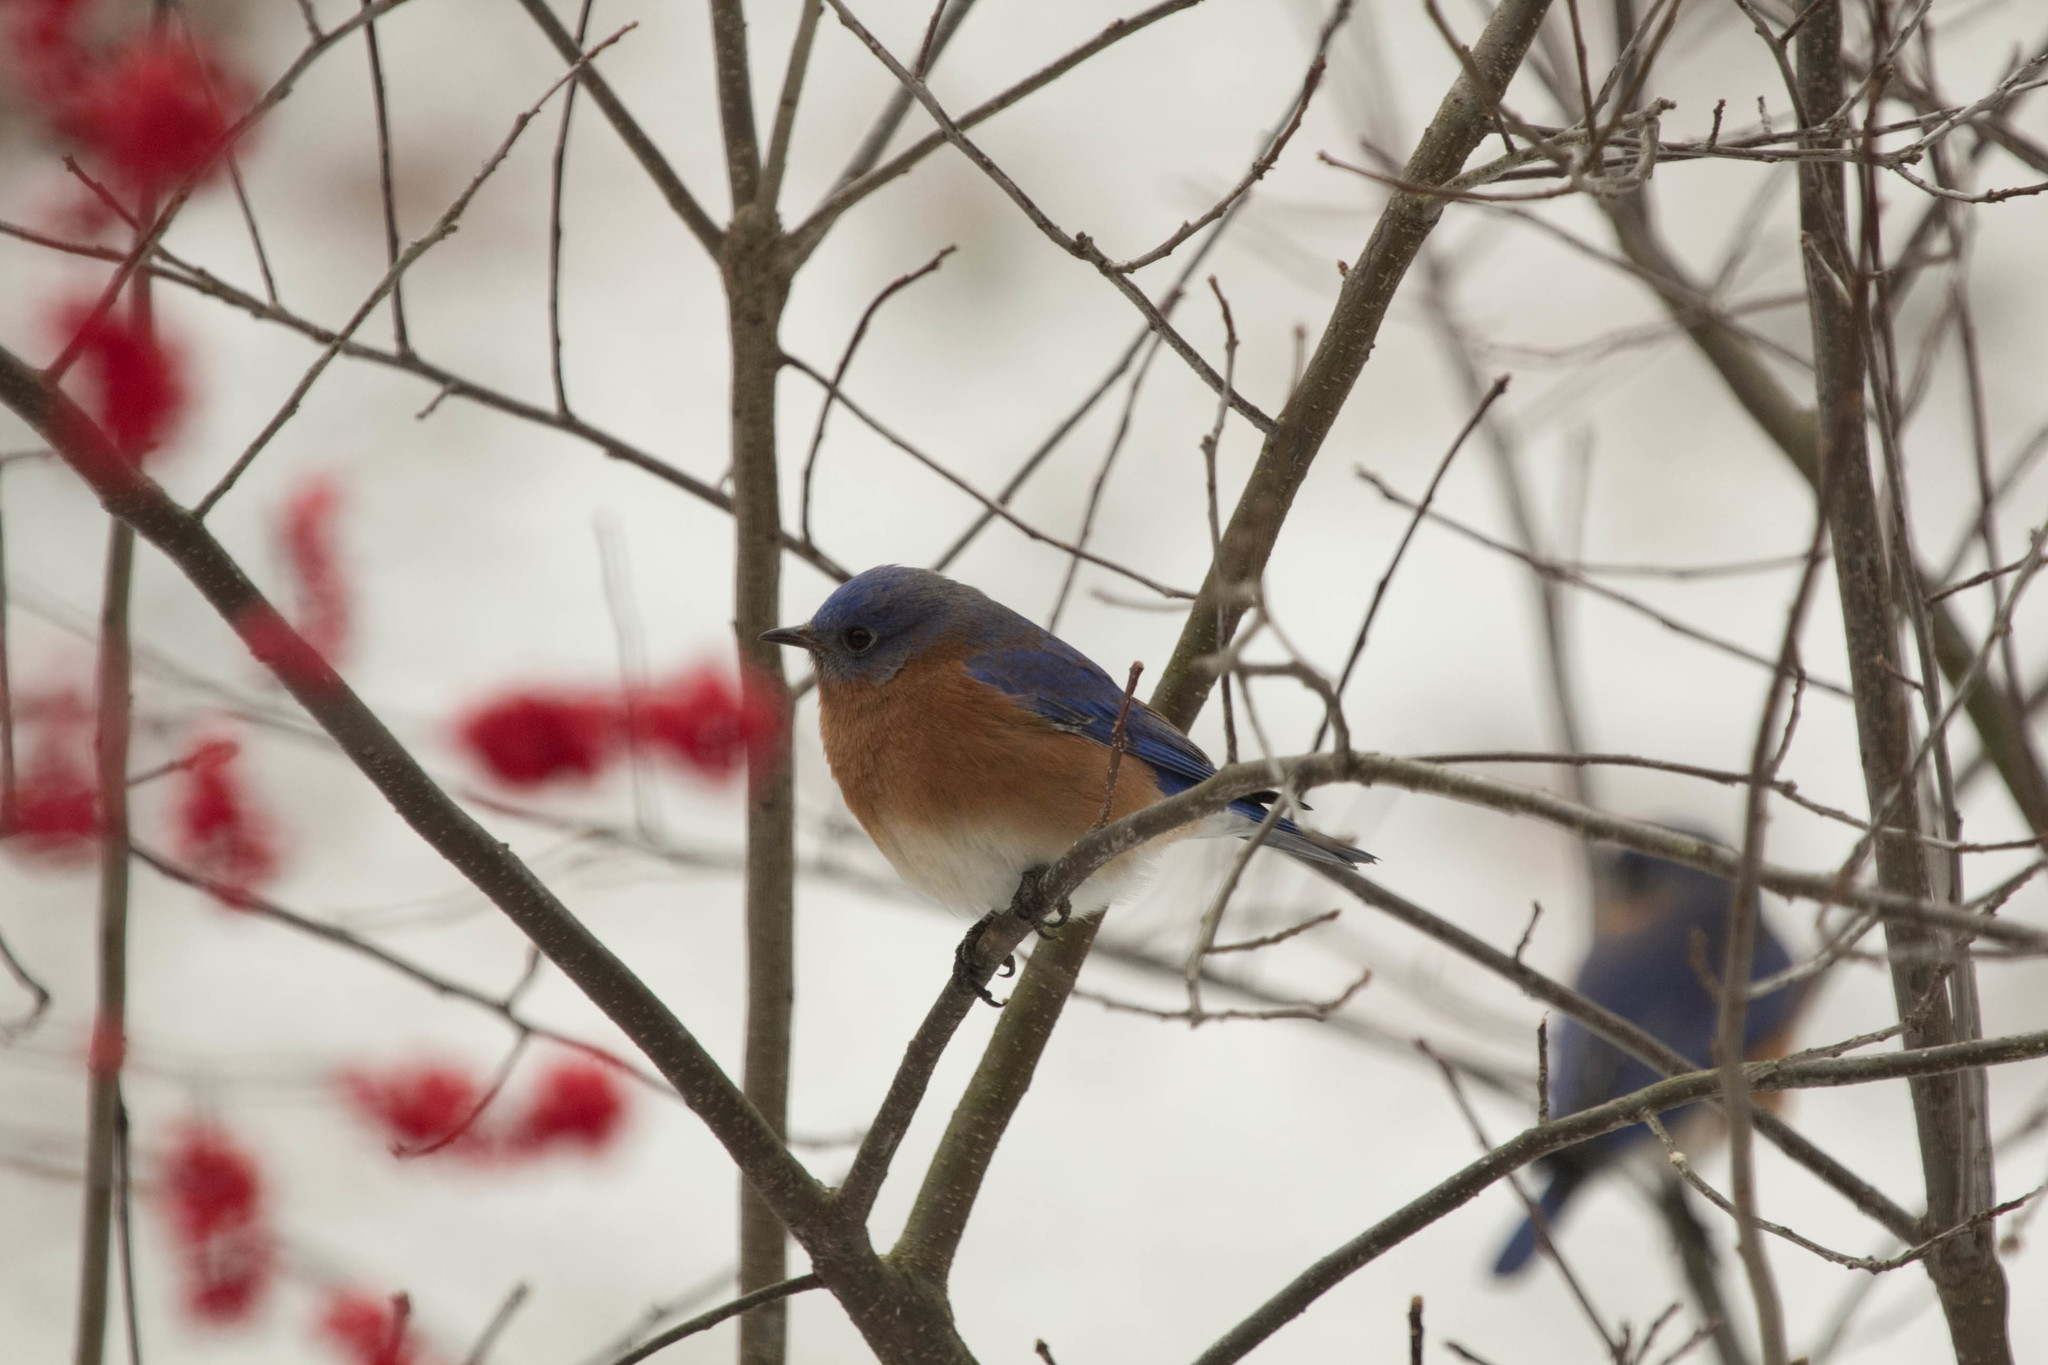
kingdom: Animalia
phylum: Chordata
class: Aves
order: Passeriformes
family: Turdidae
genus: Sialia
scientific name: Sialia sialis
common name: Eastern bluebird
